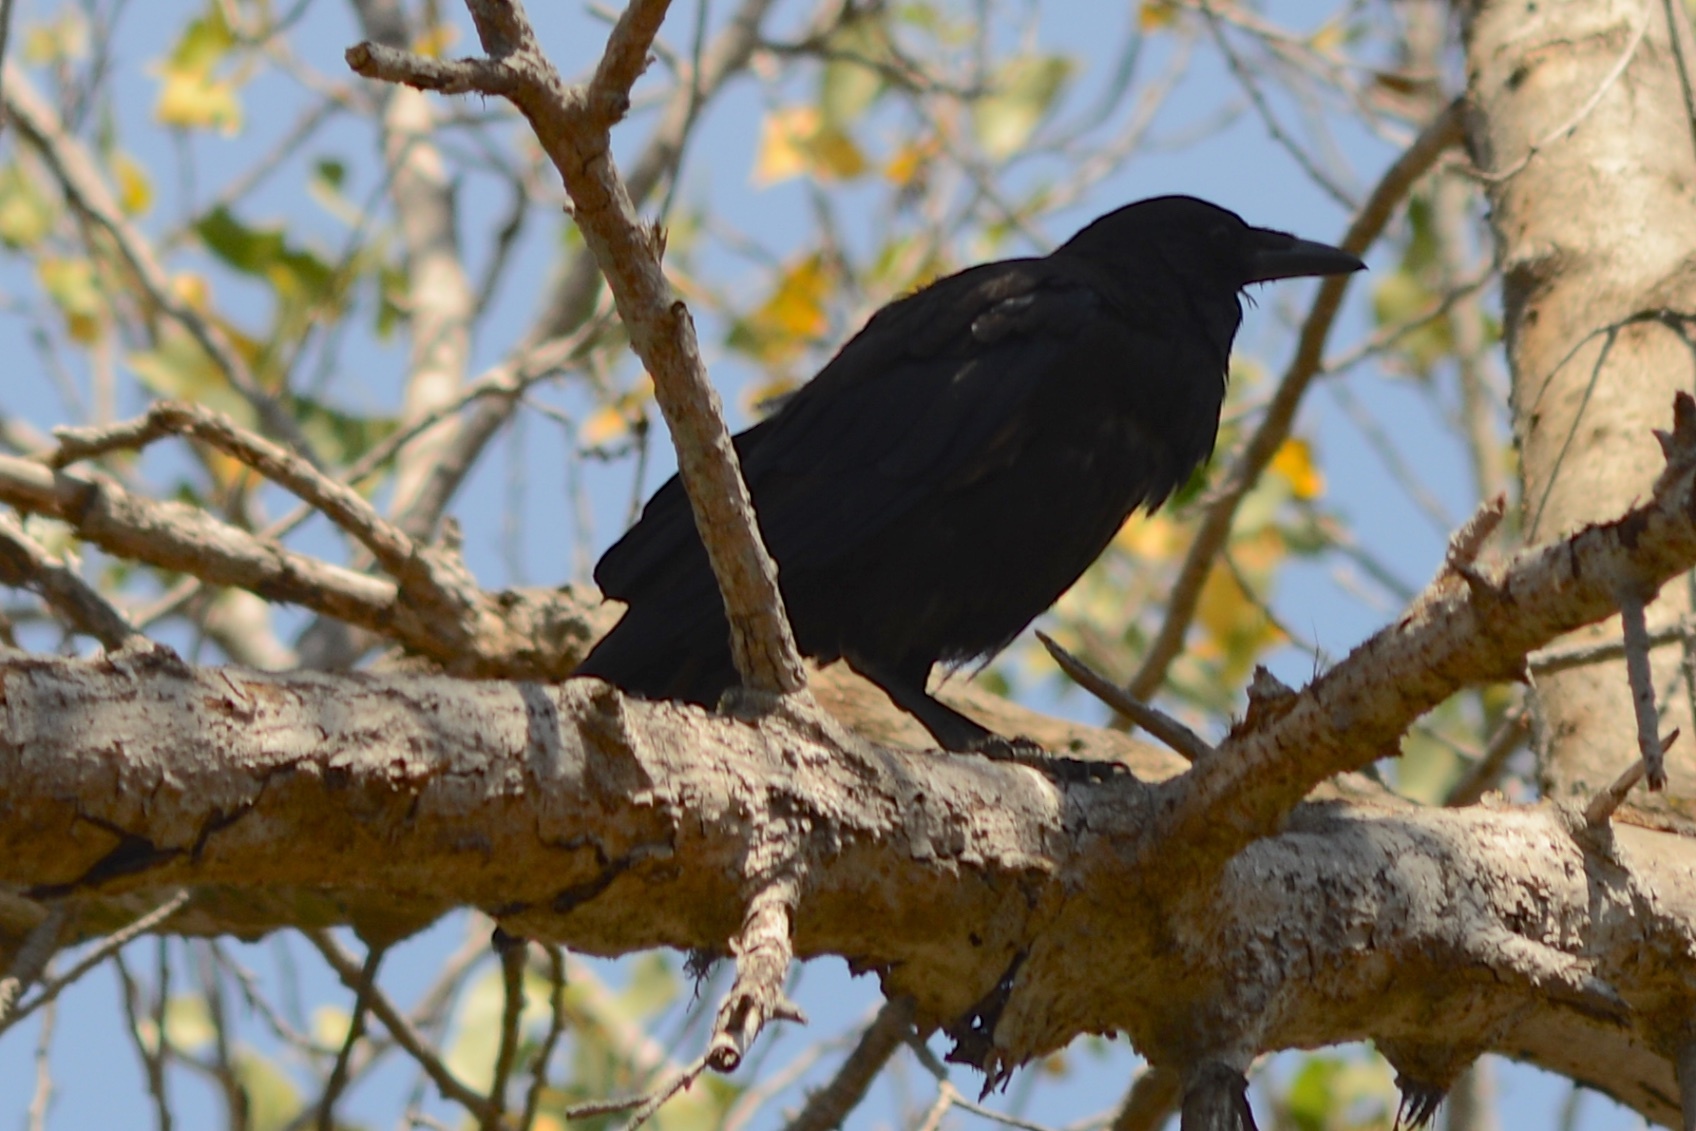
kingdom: Animalia
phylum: Chordata
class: Aves
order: Passeriformes
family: Corvidae
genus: Corvus
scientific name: Corvus brachyrhynchos
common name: American crow
